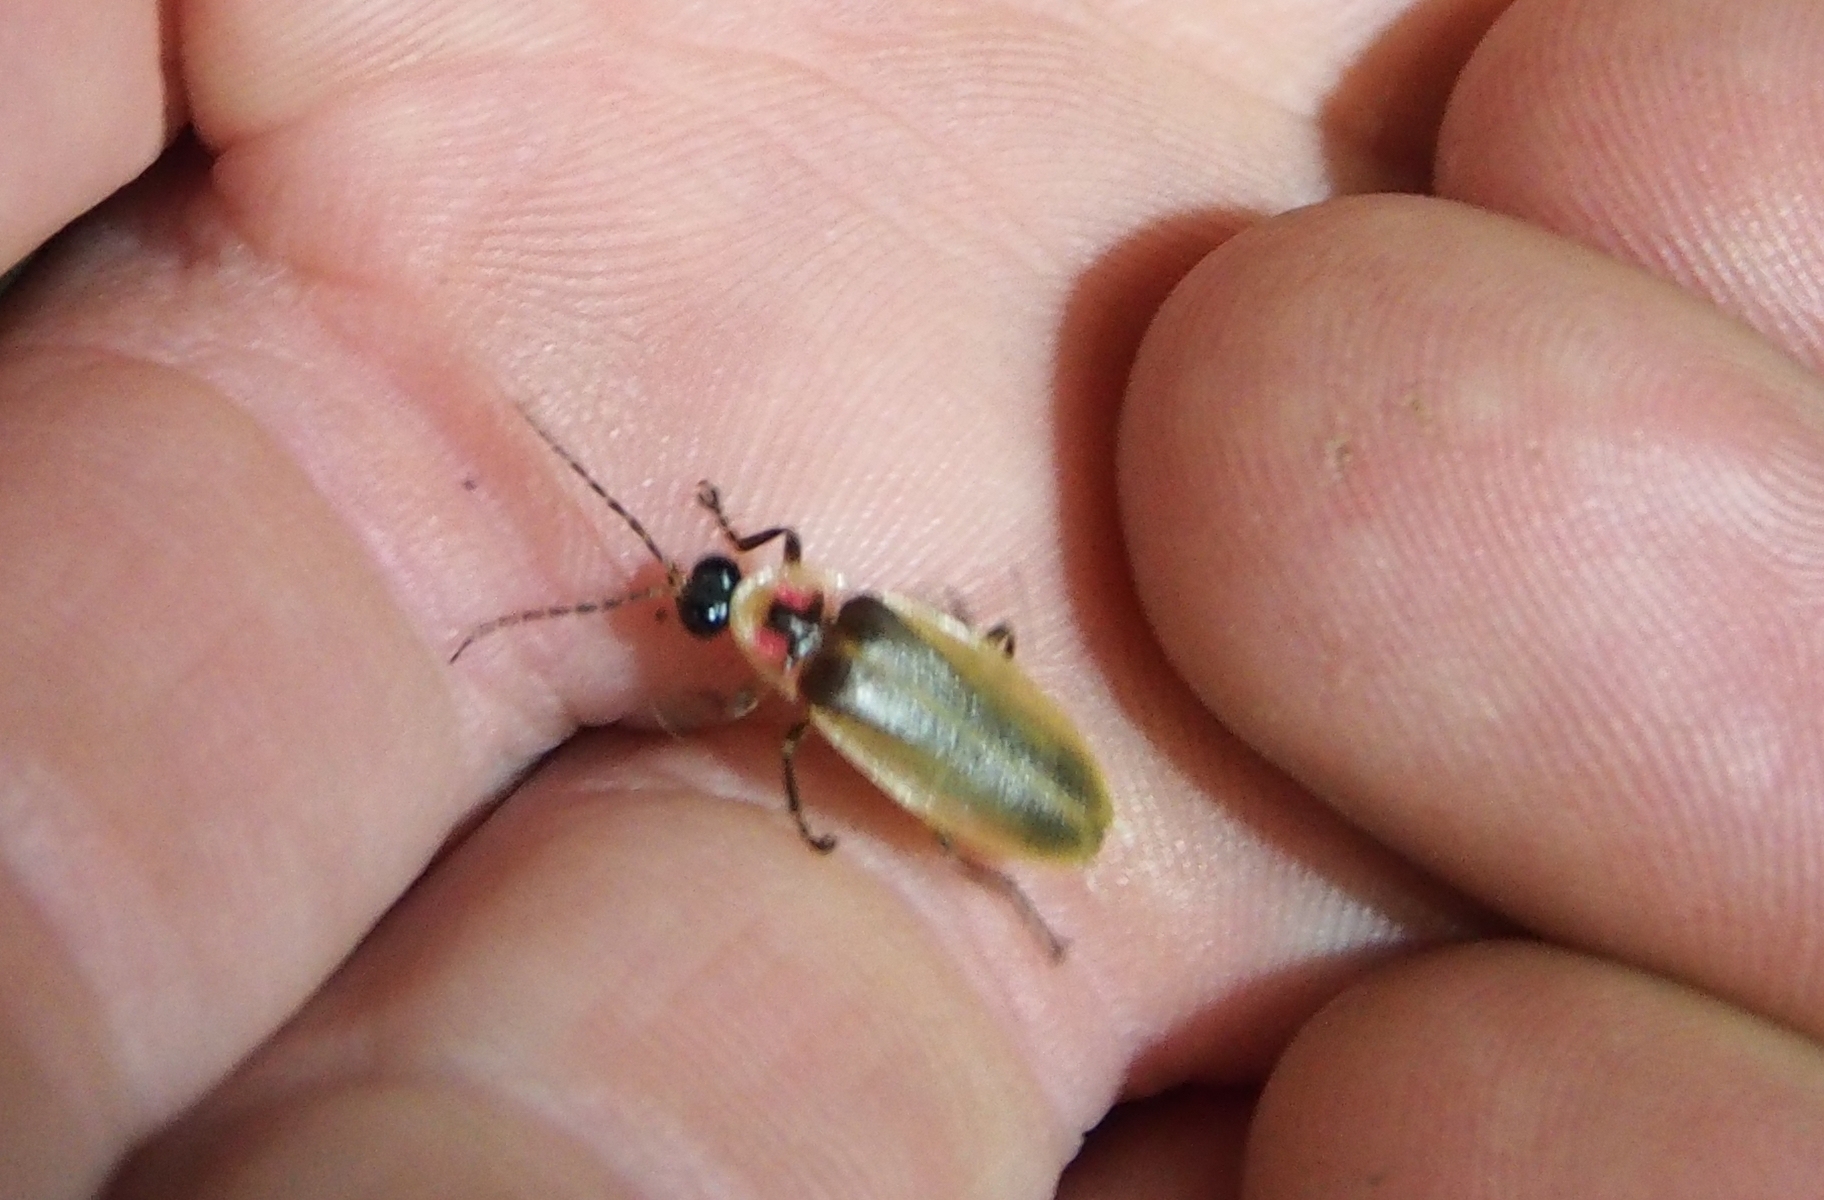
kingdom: Animalia
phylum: Arthropoda
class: Insecta
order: Coleoptera
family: Lampyridae
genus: Bicellonycha
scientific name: Bicellonycha amoena
